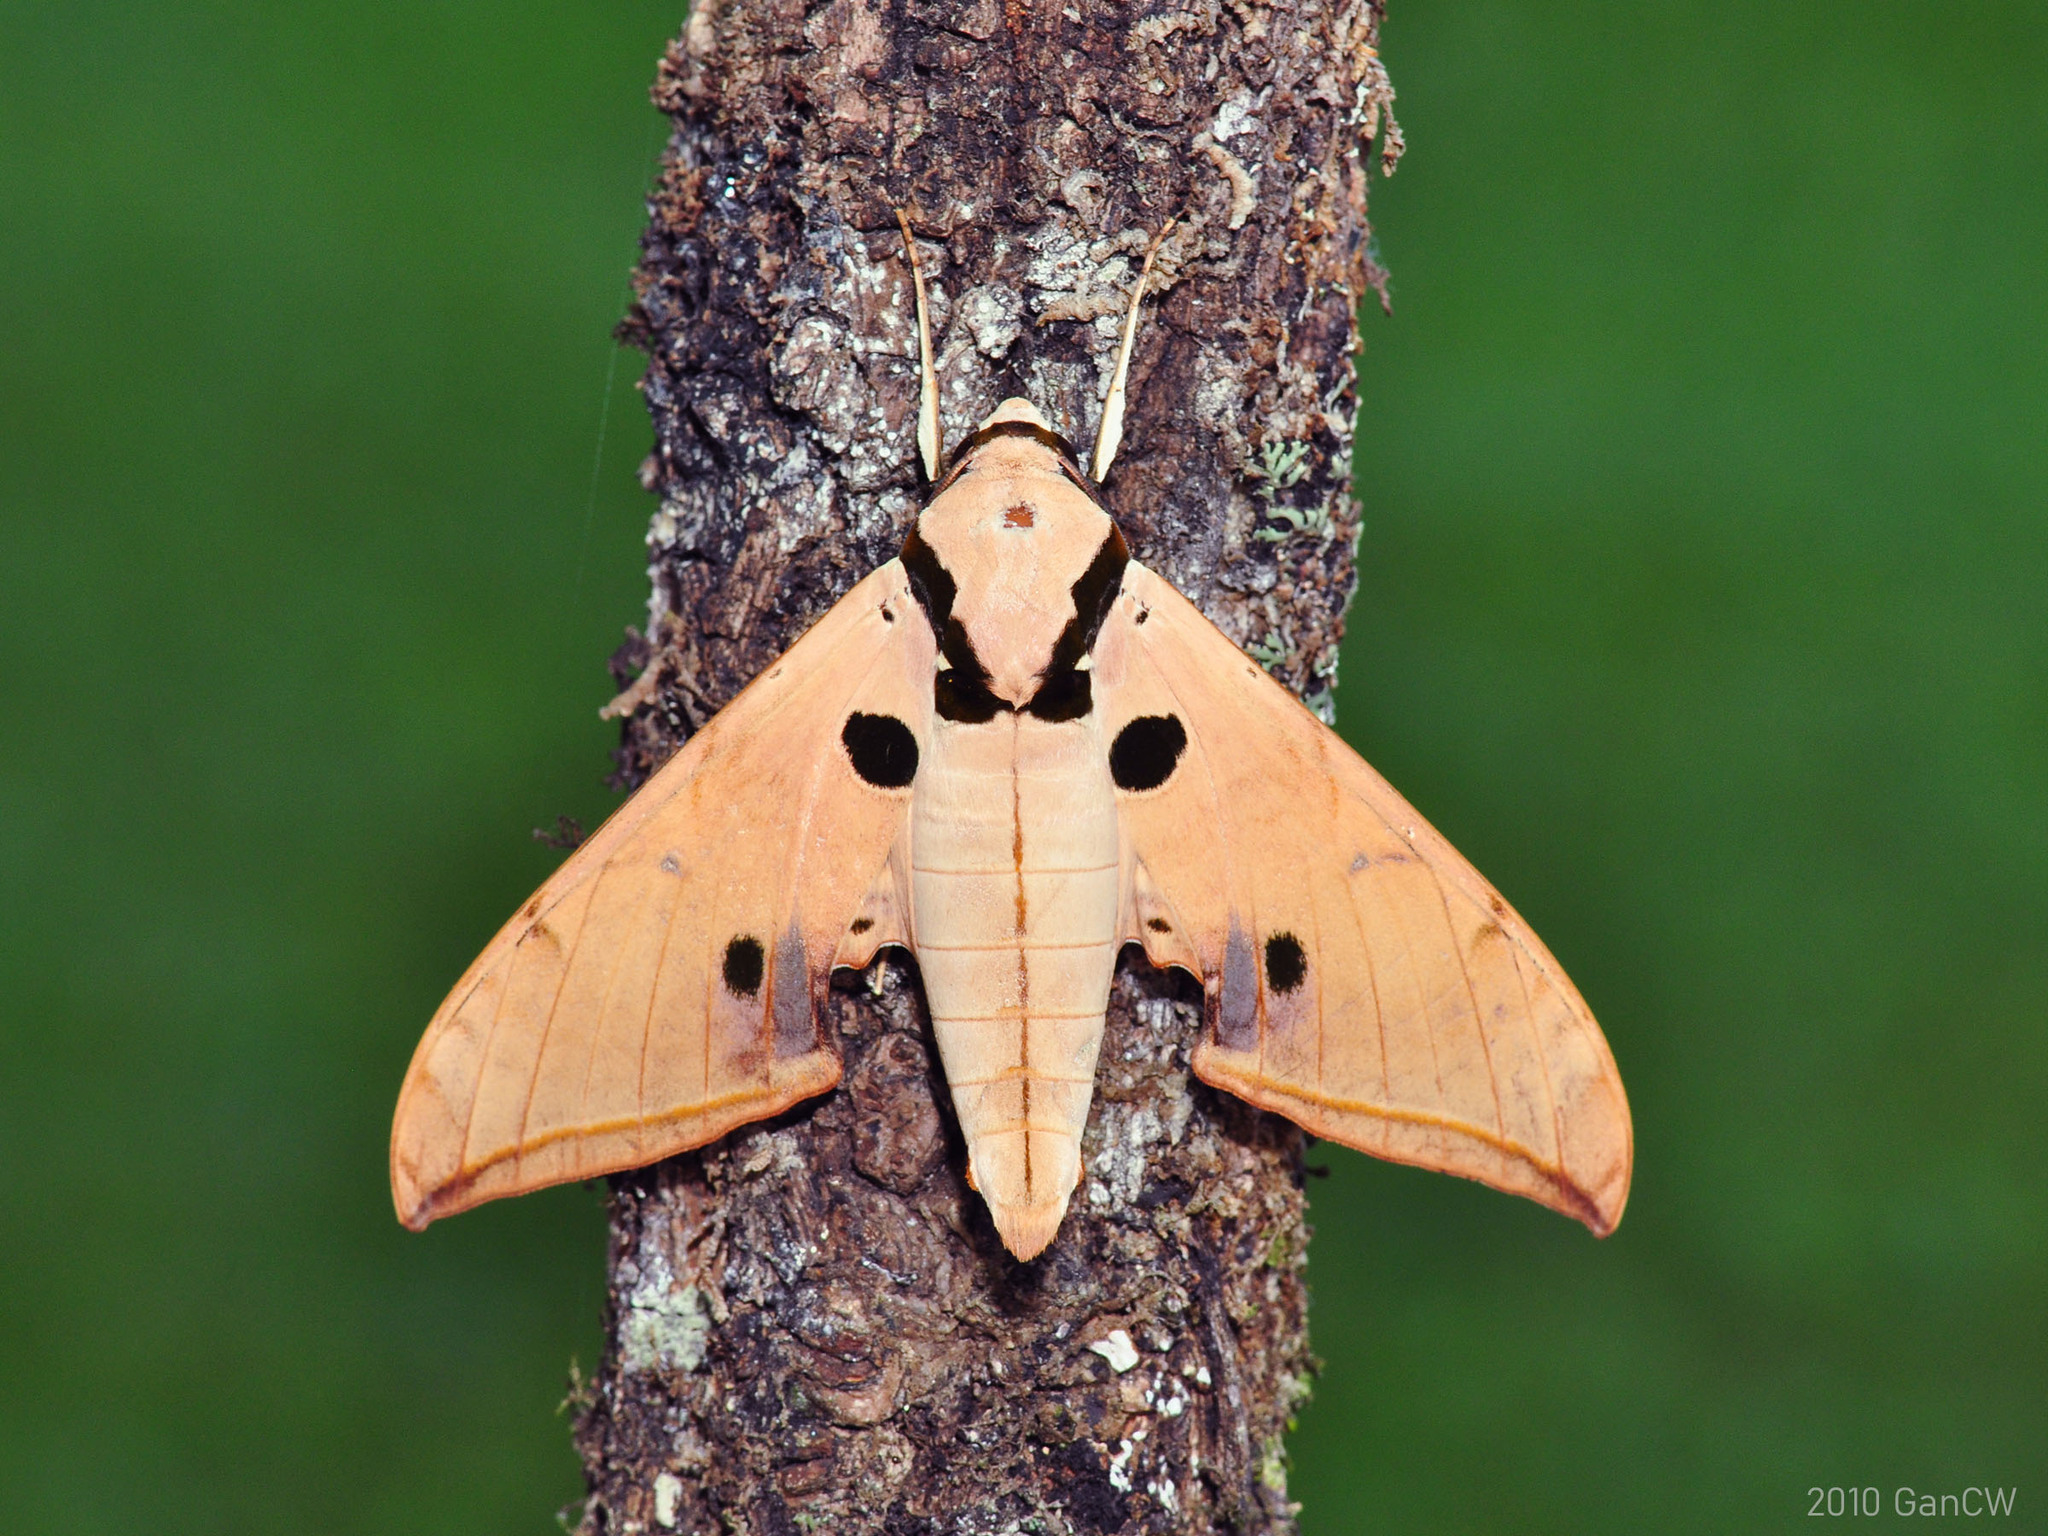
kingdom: Animalia
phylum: Arthropoda
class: Insecta
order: Lepidoptera
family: Sphingidae
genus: Ambulyx
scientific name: Ambulyx obliterata
